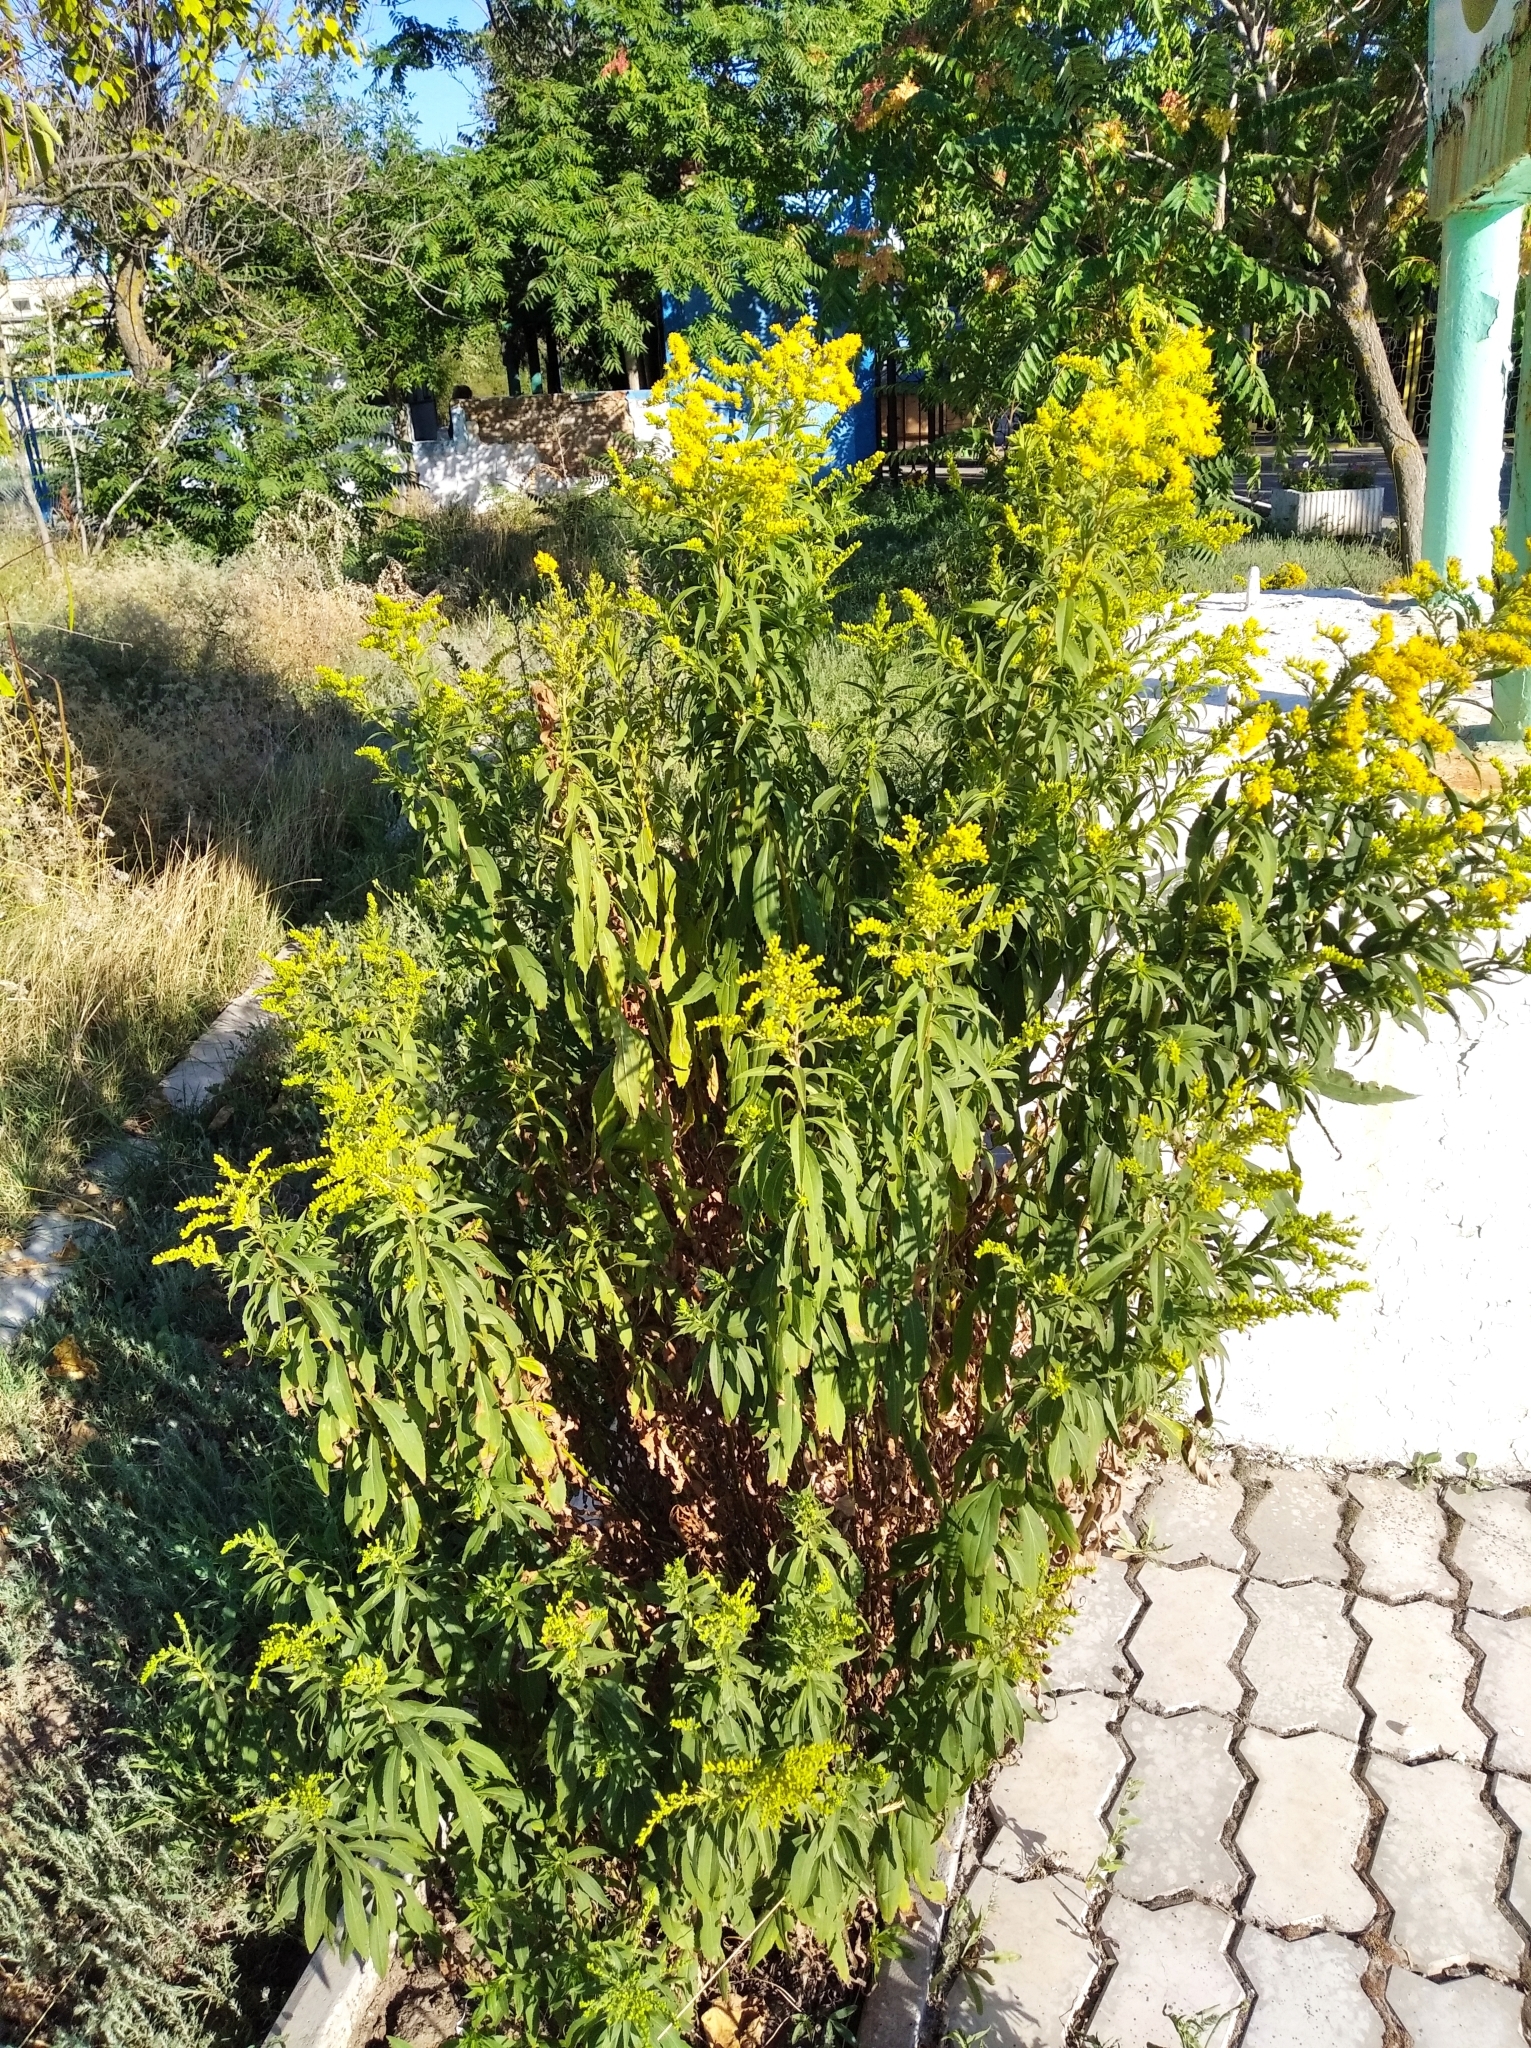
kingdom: Plantae
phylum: Tracheophyta
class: Magnoliopsida
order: Asterales
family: Asteraceae
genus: Solidago
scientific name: Solidago canadensis
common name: Canada goldenrod
